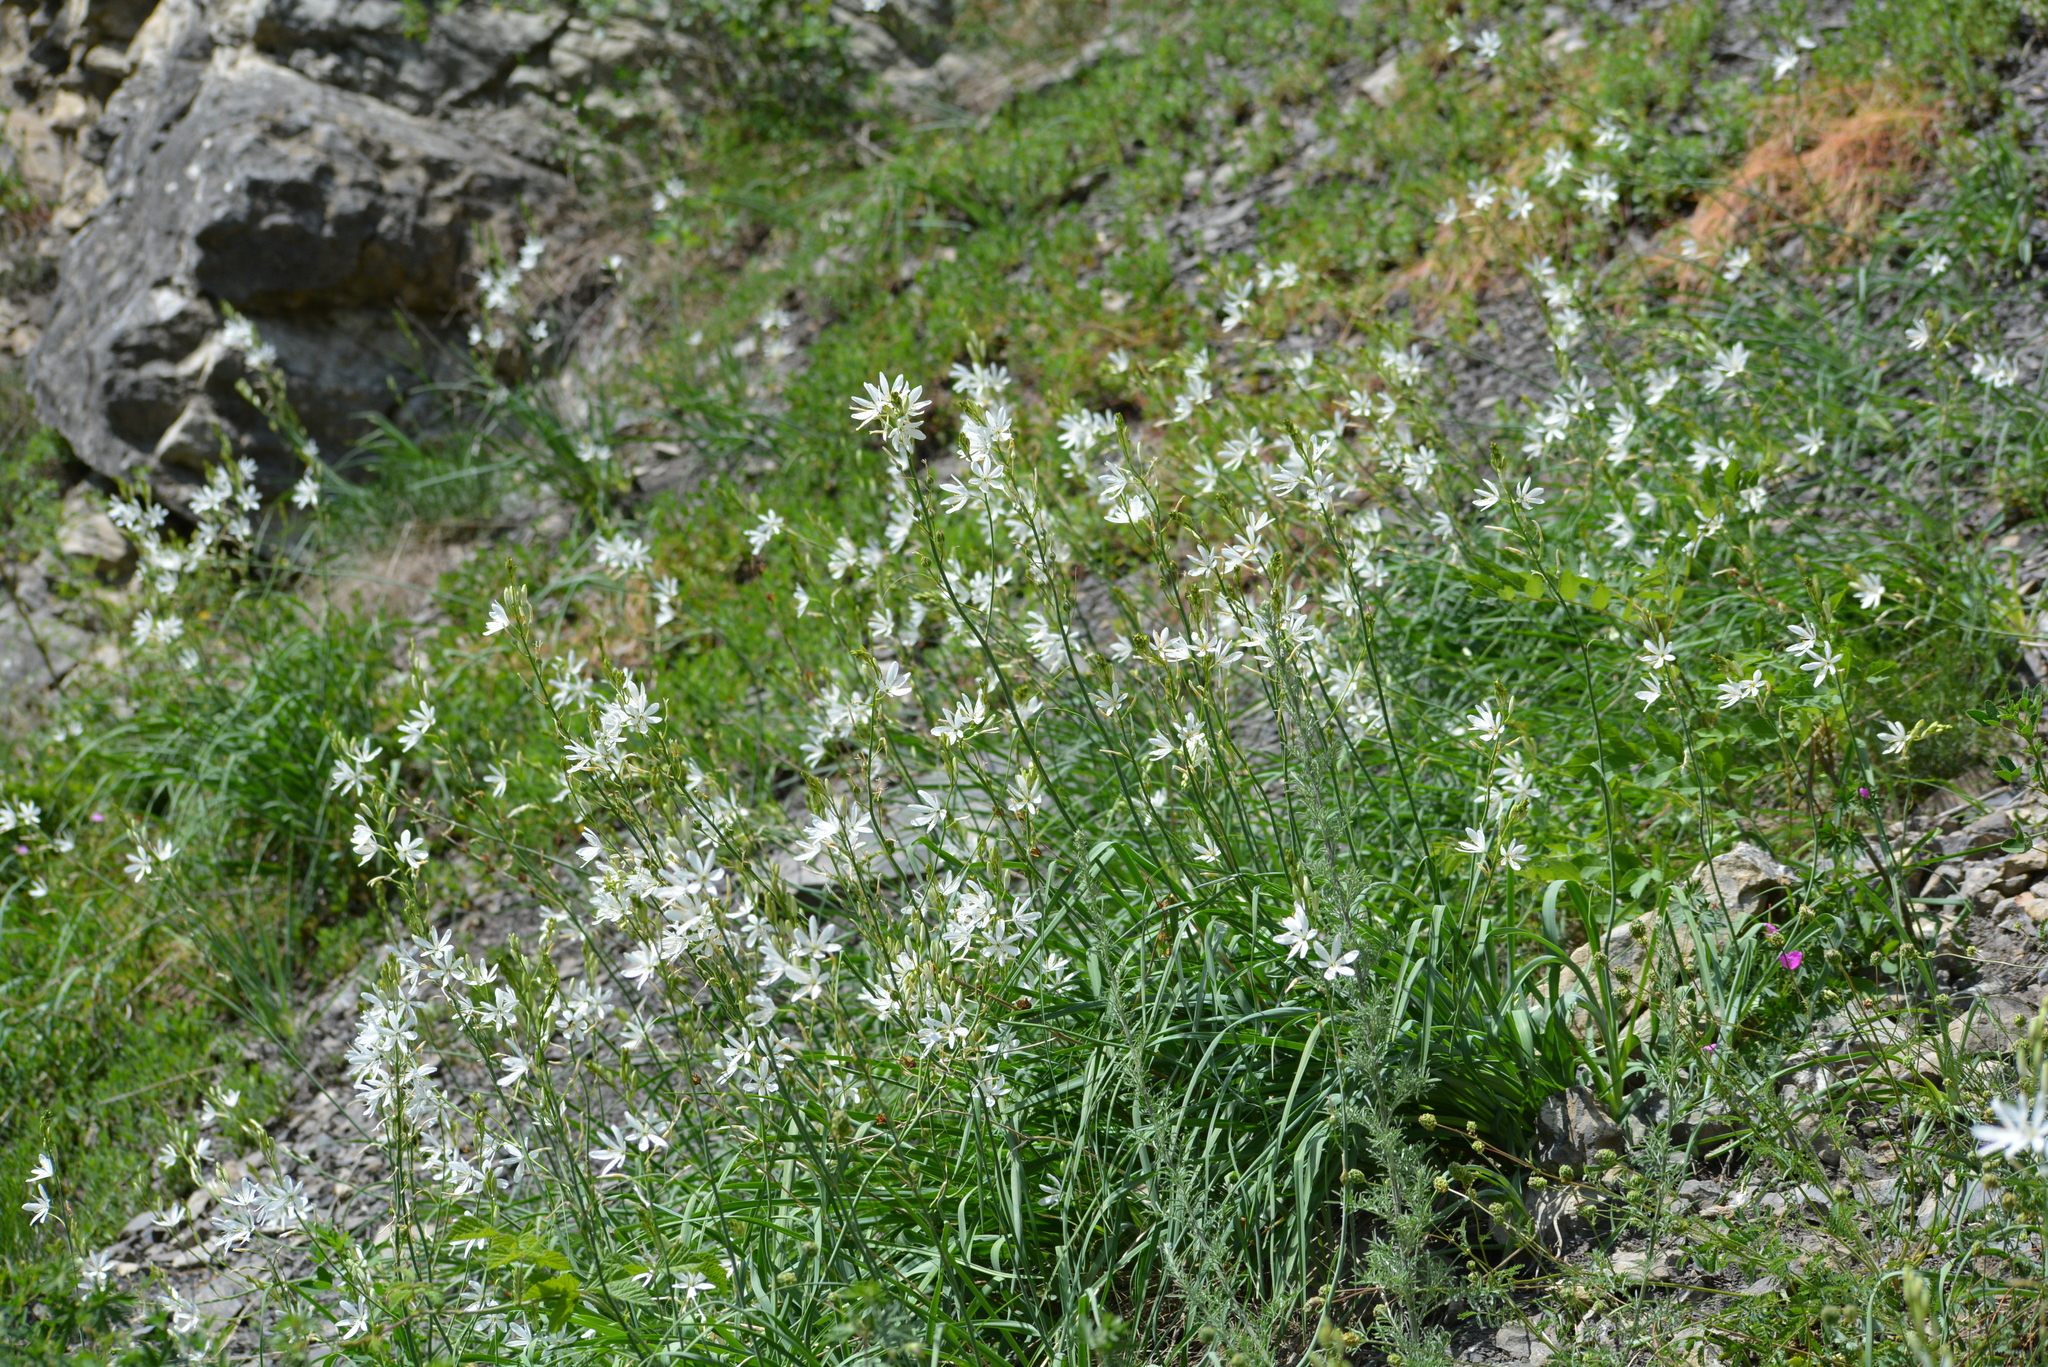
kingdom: Plantae
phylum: Tracheophyta
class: Liliopsida
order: Asparagales
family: Asparagaceae
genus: Anthericum
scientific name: Anthericum ramosum
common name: Branched st. bernard's-lily
